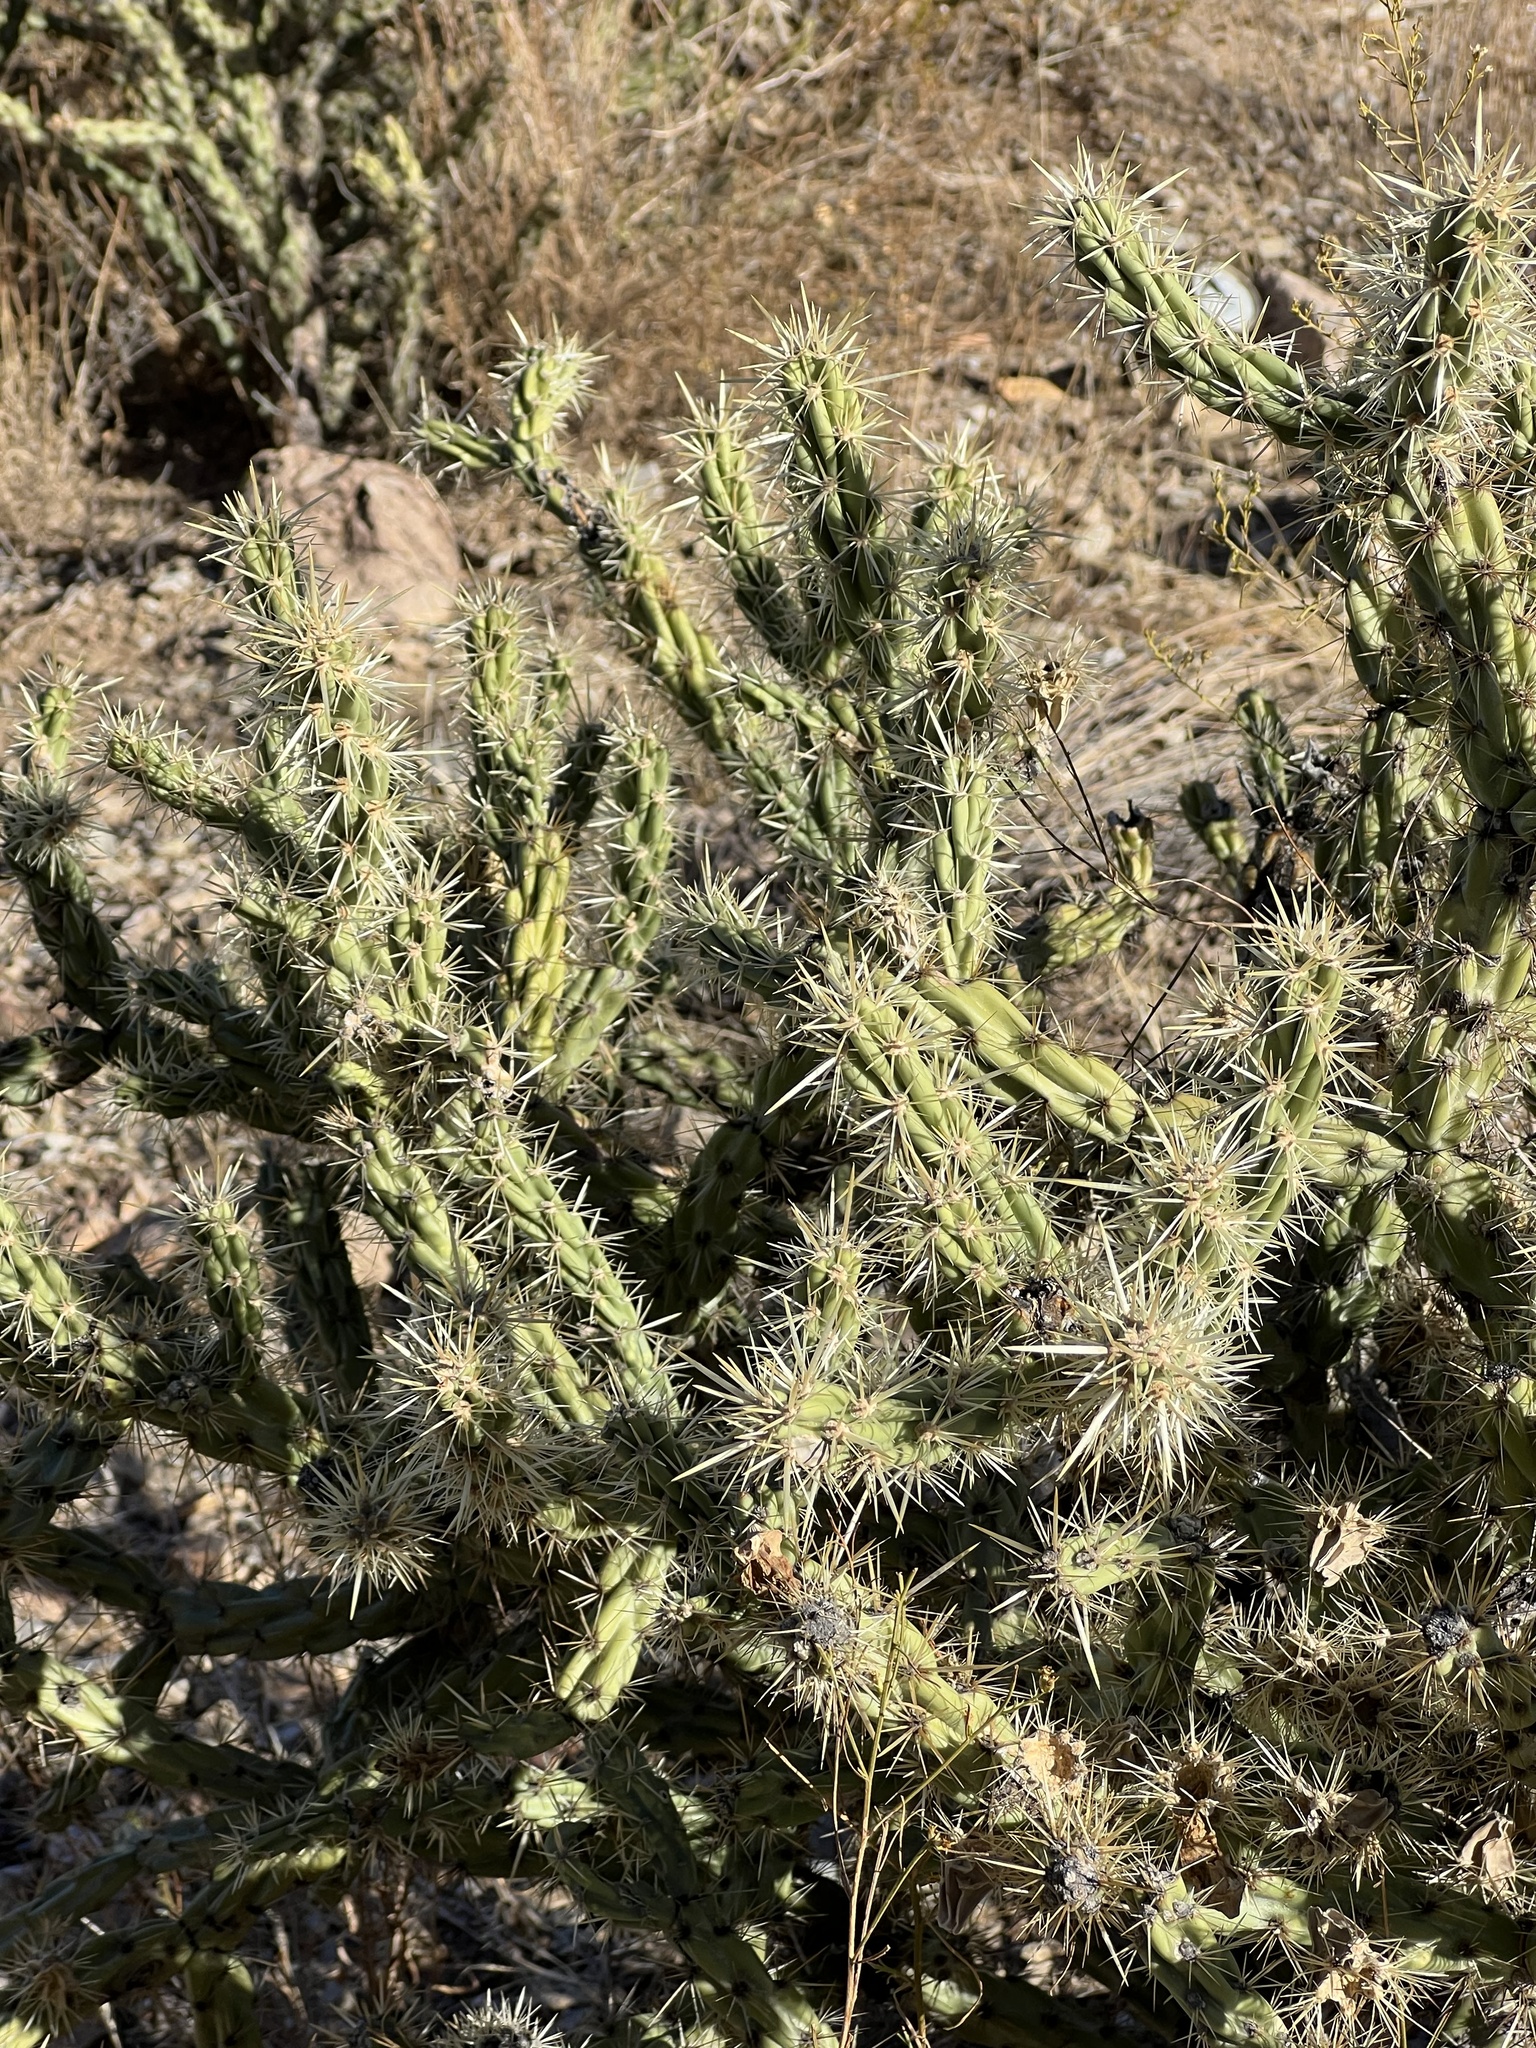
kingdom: Plantae
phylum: Tracheophyta
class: Magnoliopsida
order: Caryophyllales
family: Cactaceae
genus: Cylindropuntia
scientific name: Cylindropuntia acanthocarpa
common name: Buckhorn cholla
